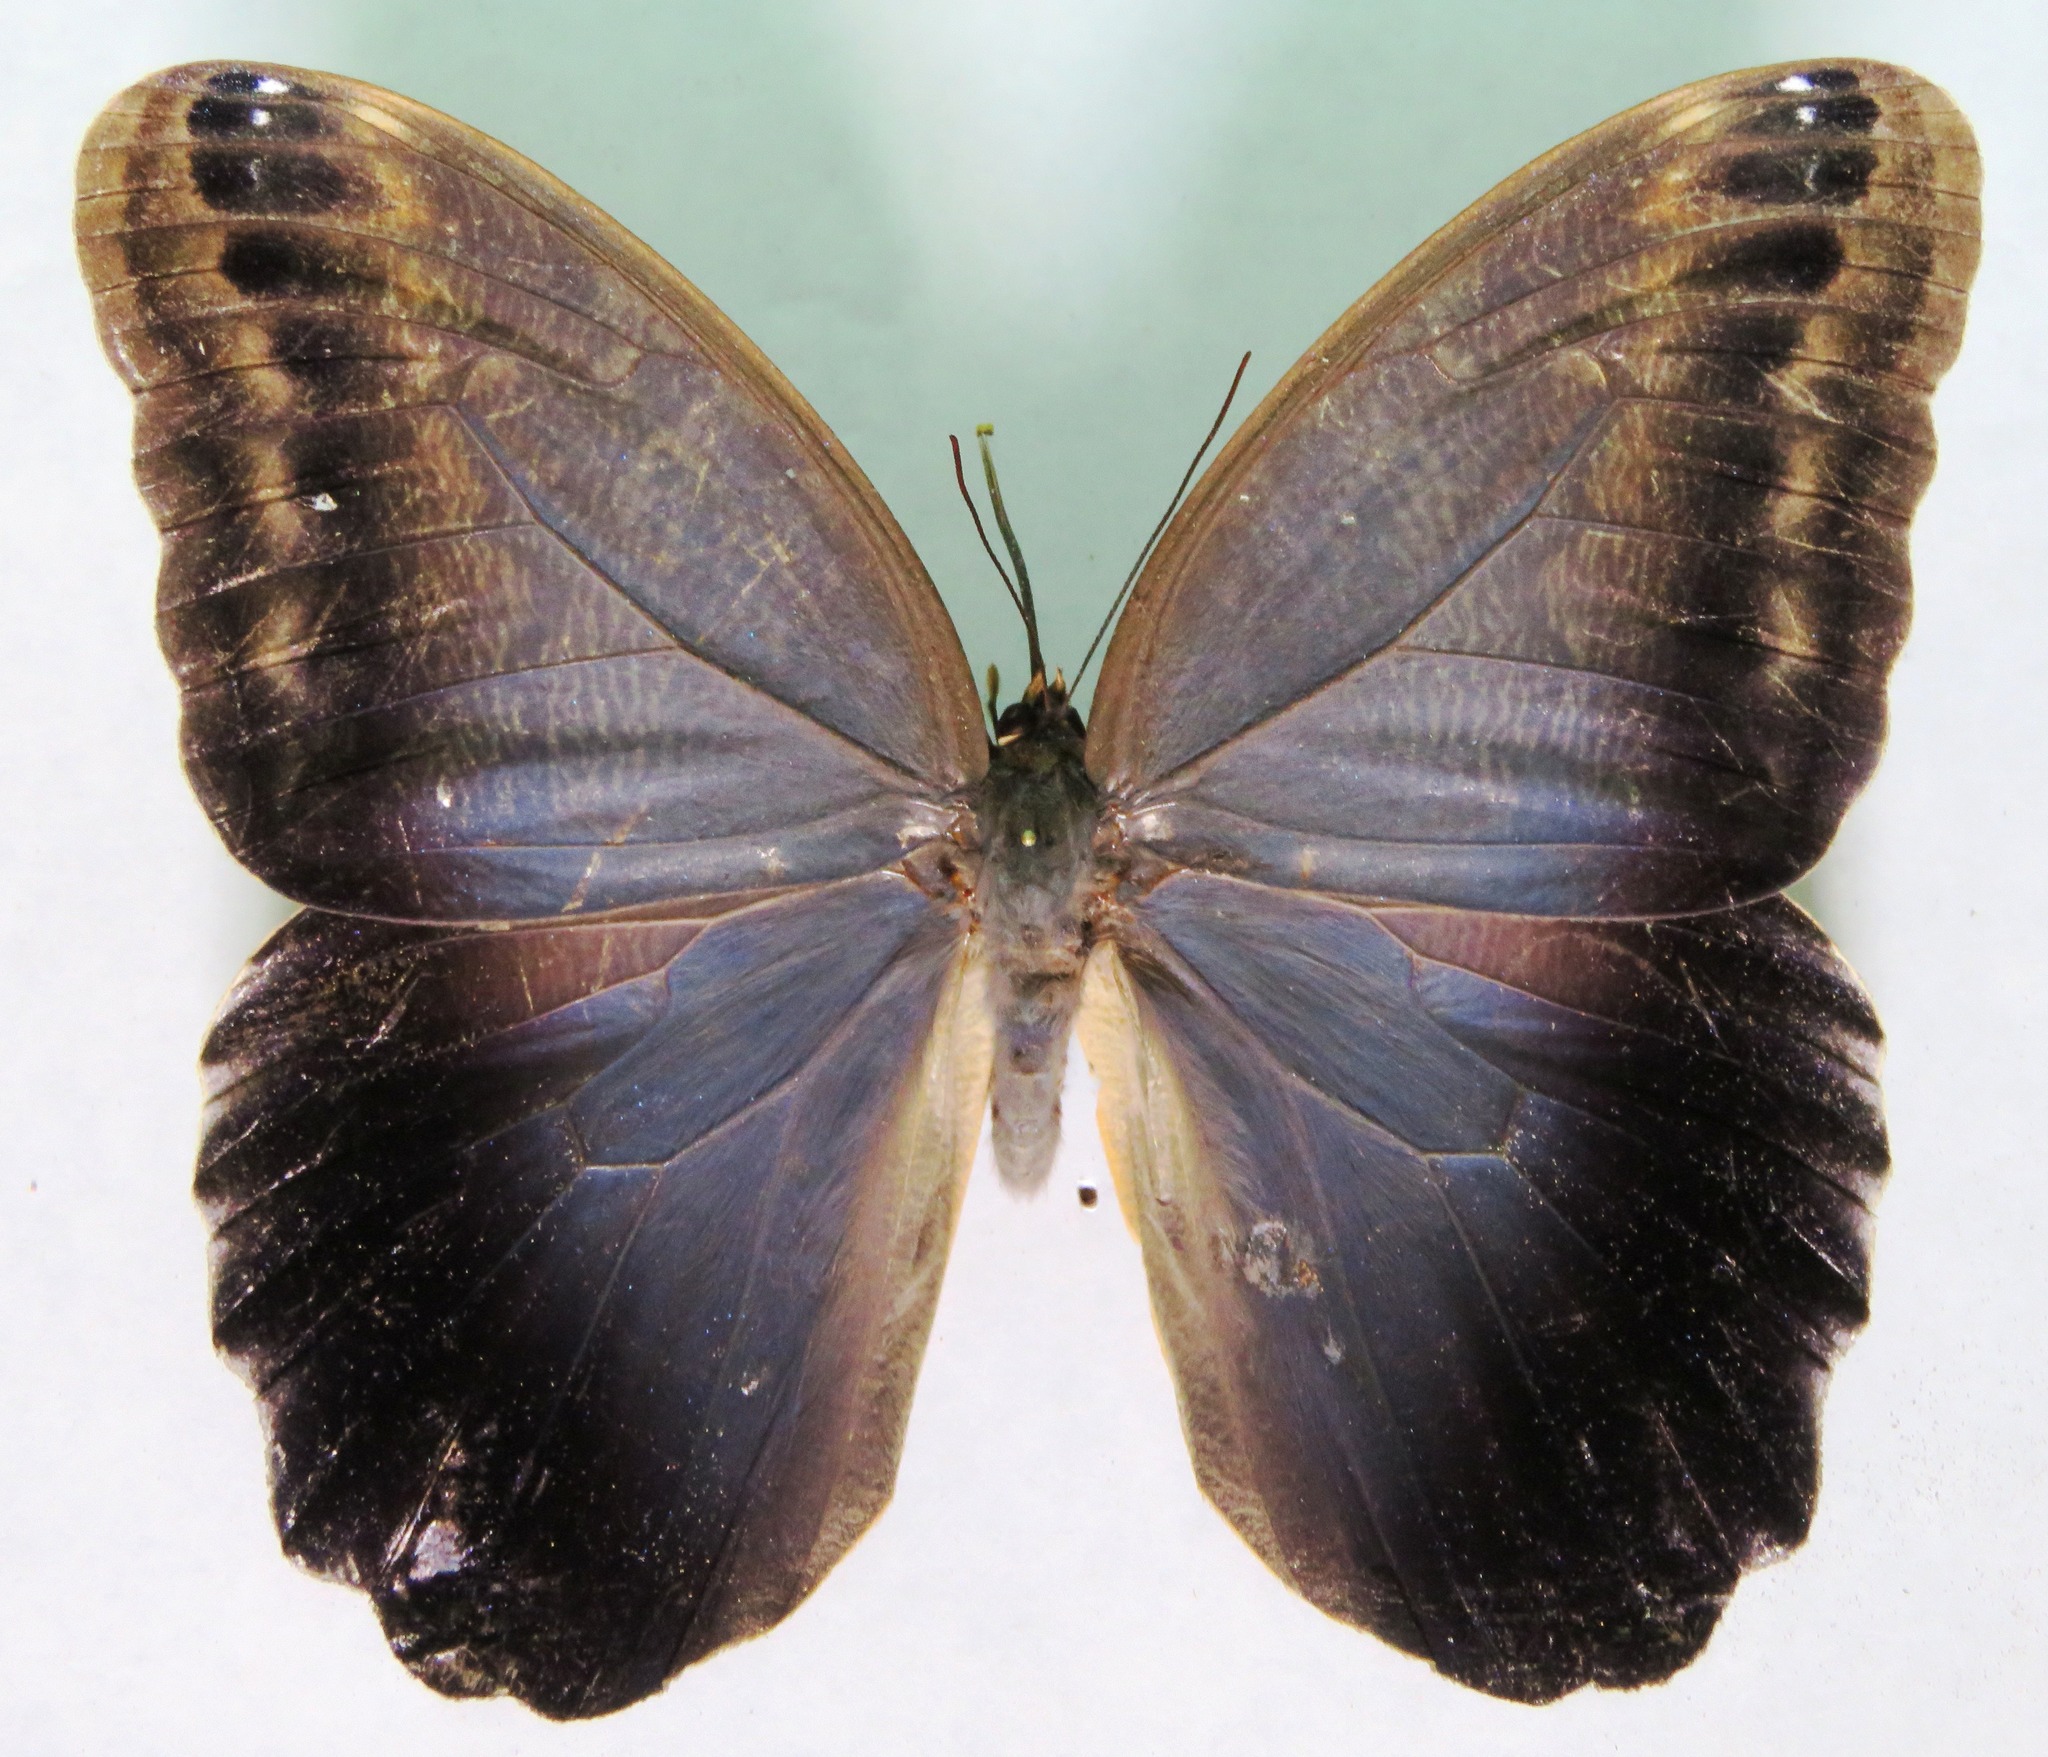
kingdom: Animalia
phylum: Arthropoda
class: Insecta
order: Lepidoptera
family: Nymphalidae
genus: Caligo
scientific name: Caligo brasiliensis
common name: Dark owl-butterfly
